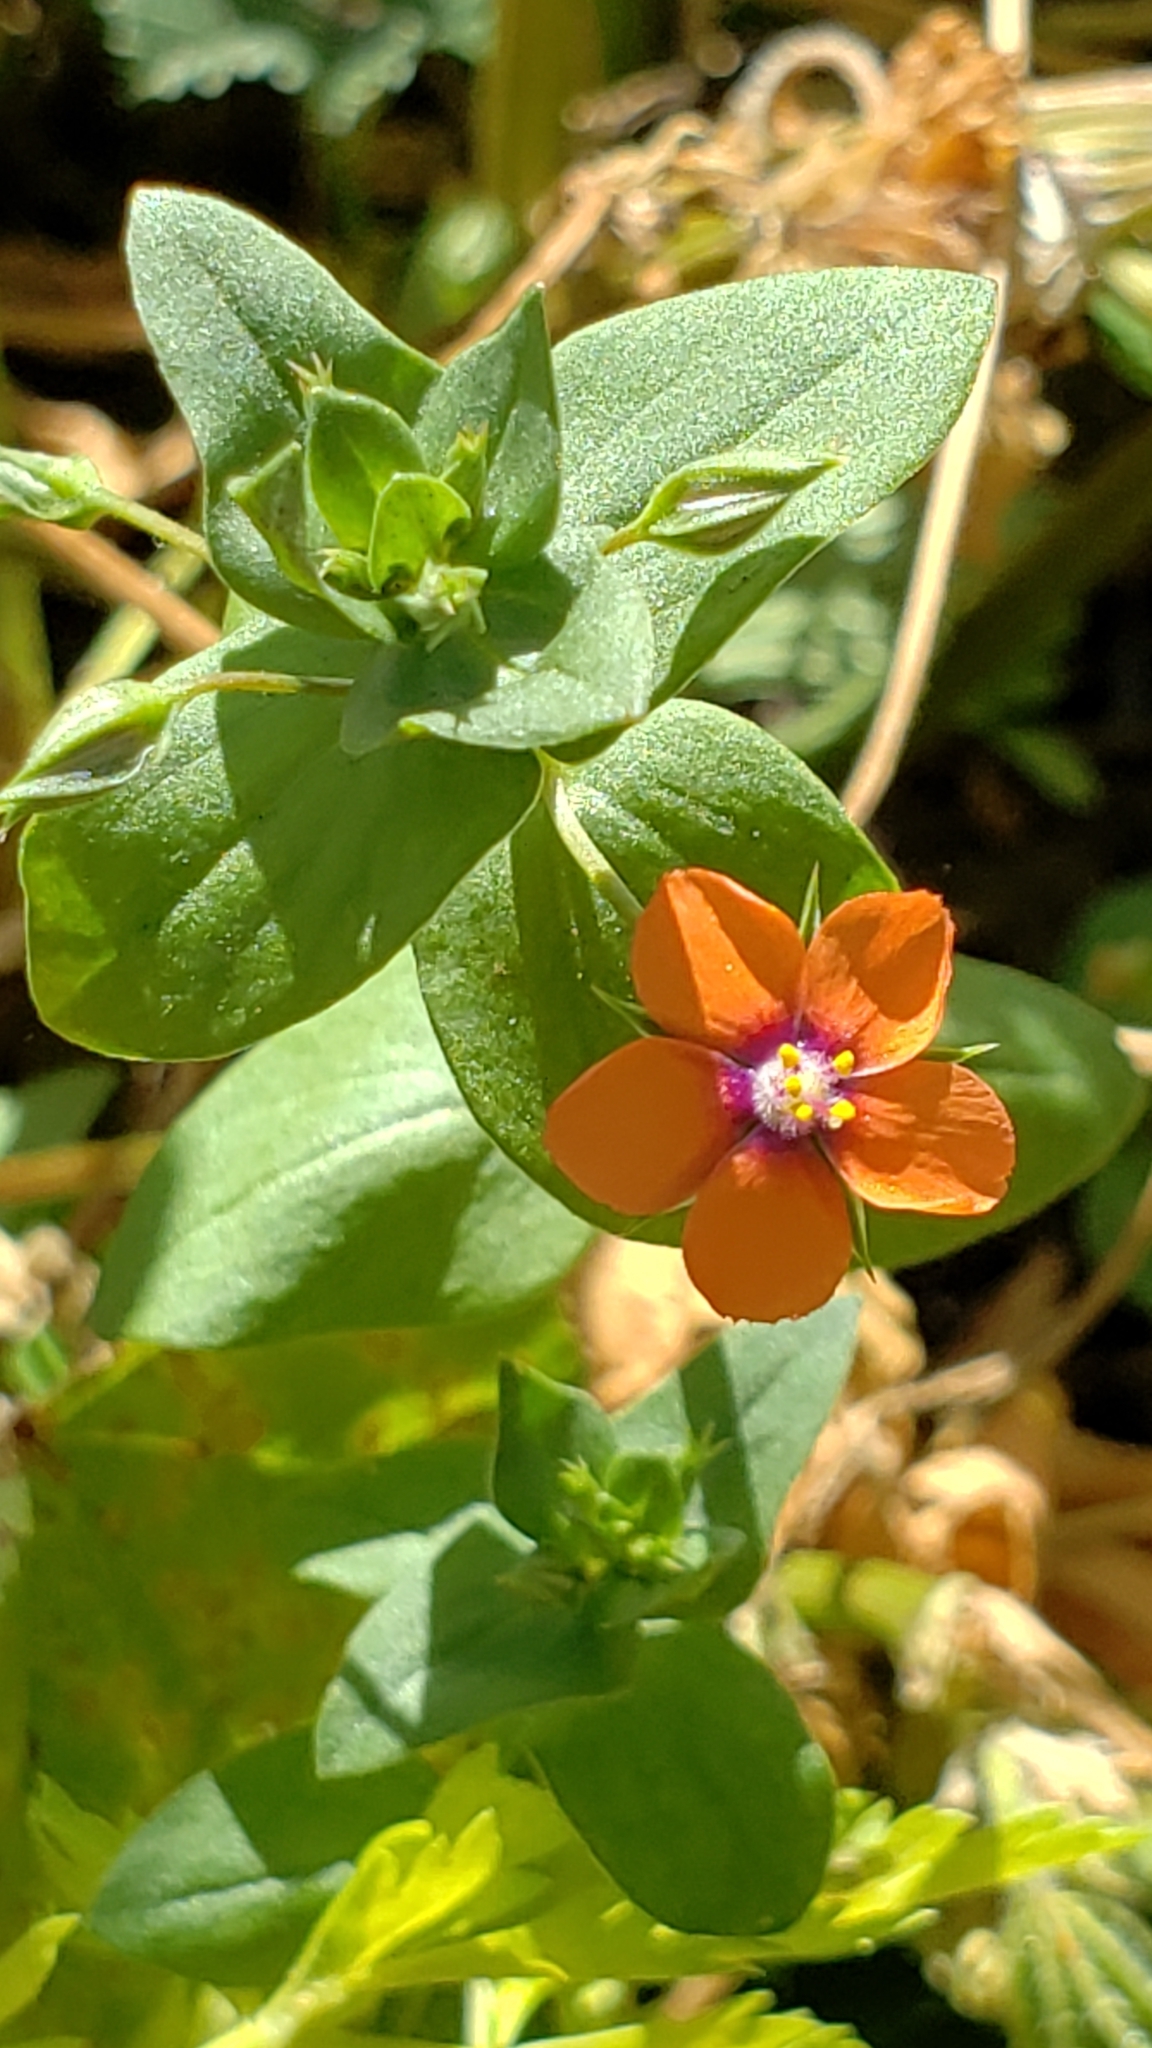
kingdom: Plantae
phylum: Tracheophyta
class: Magnoliopsida
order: Ericales
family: Primulaceae
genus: Lysimachia
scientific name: Lysimachia arvensis
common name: Scarlet pimpernel
